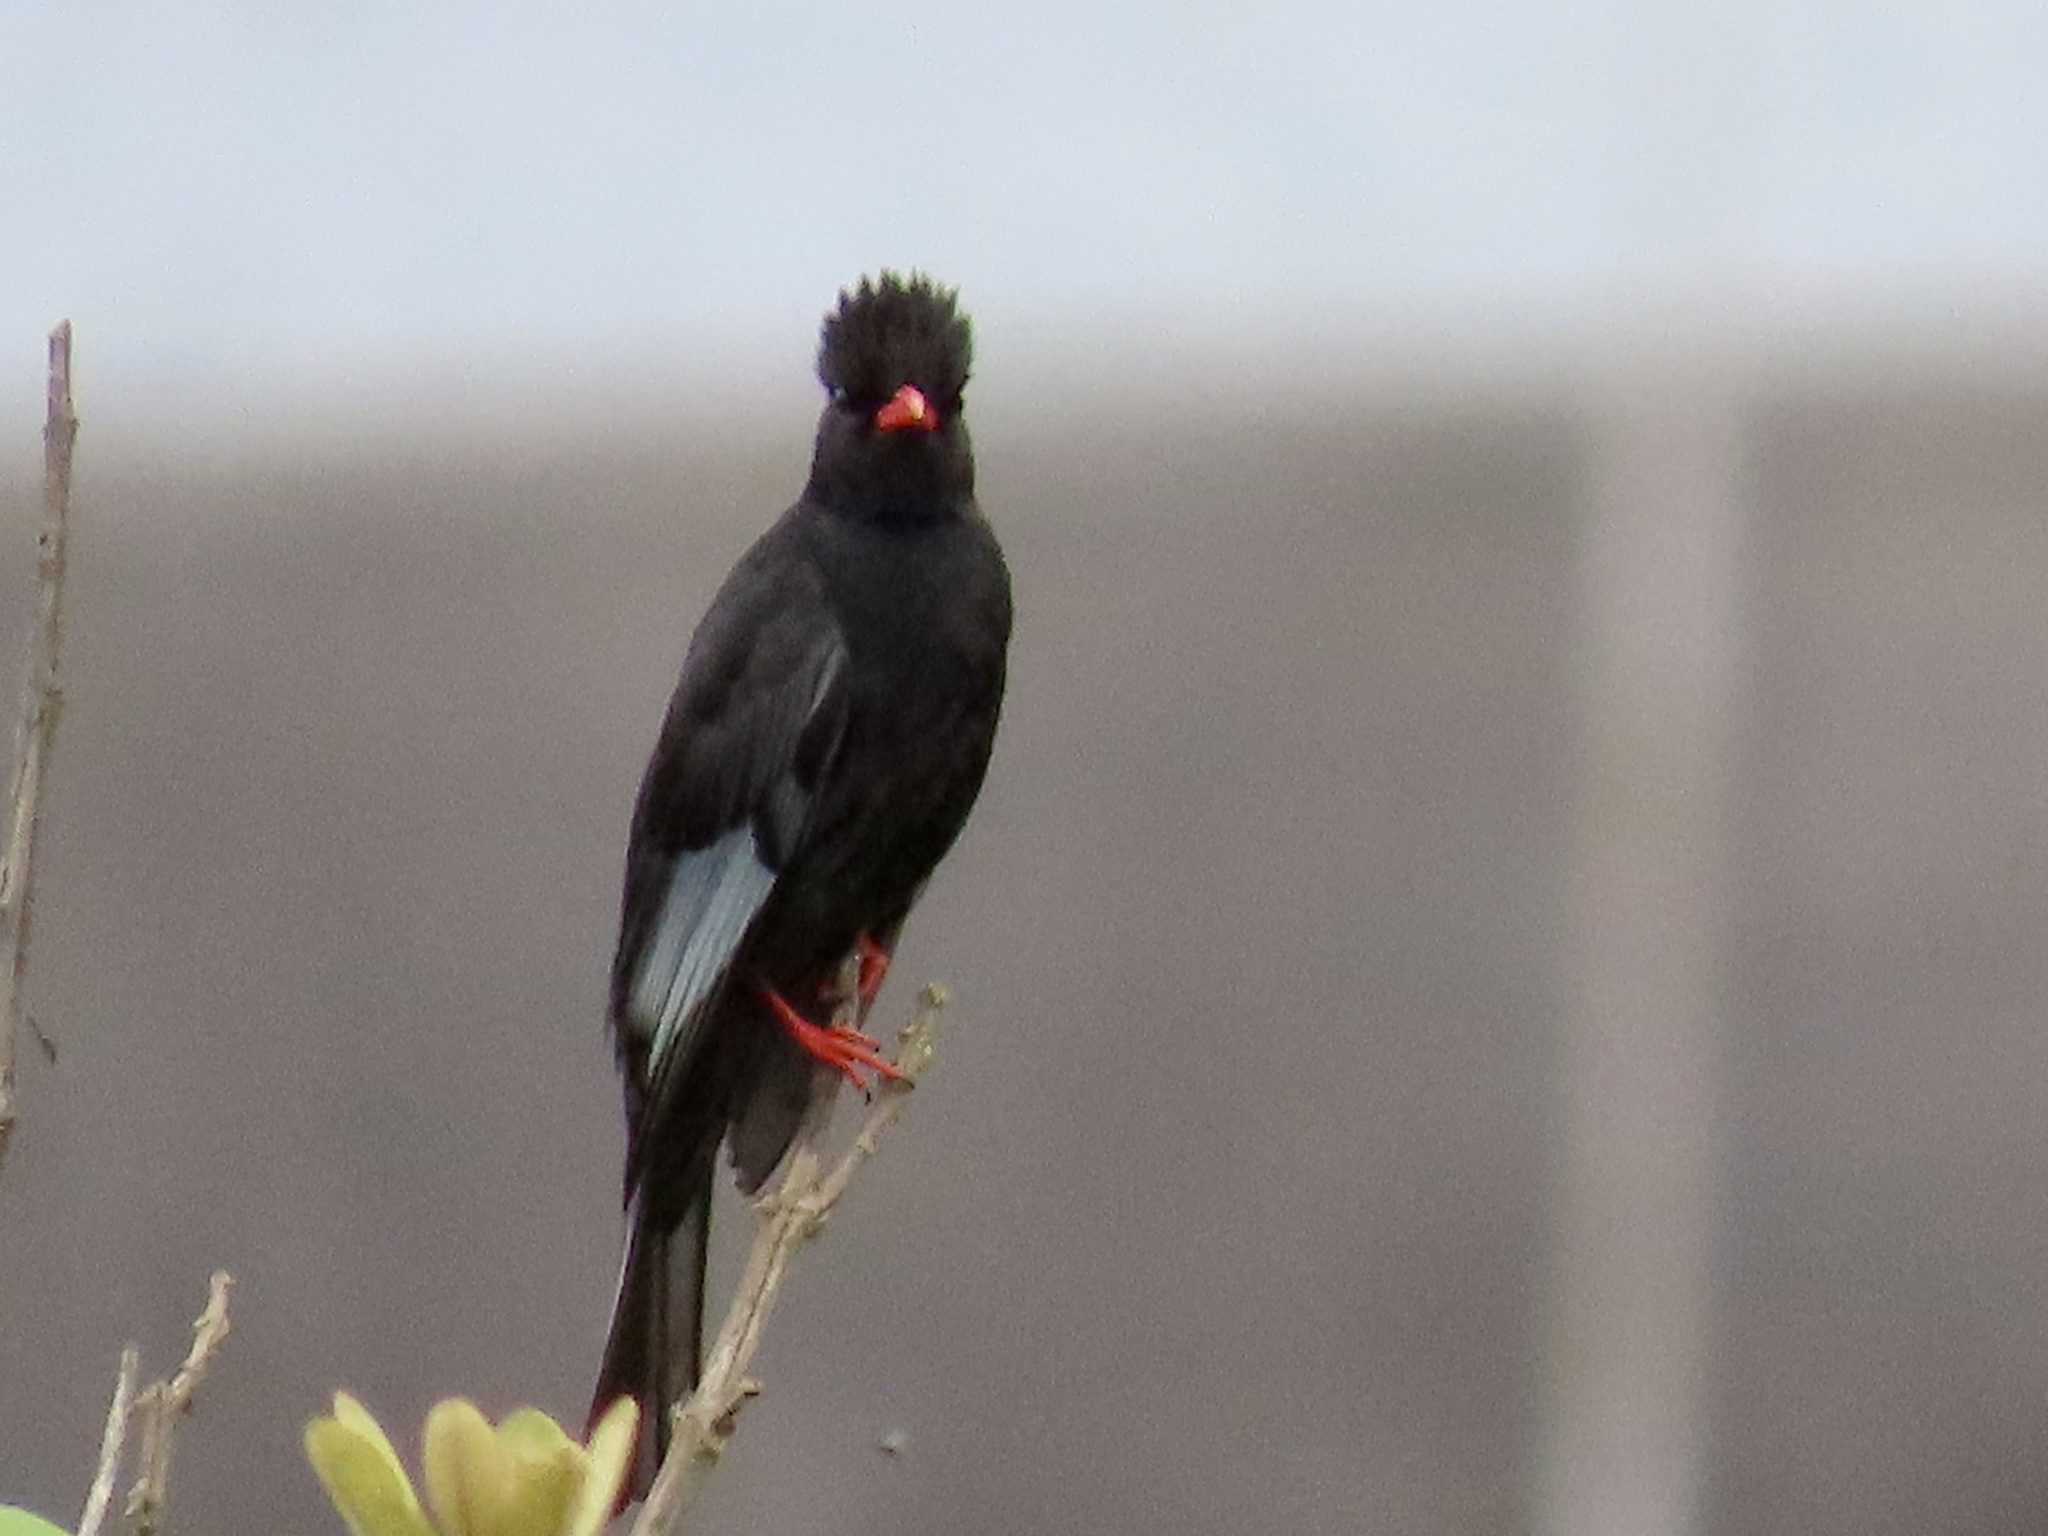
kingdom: Animalia
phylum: Chordata
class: Aves
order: Passeriformes
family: Pycnonotidae
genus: Hypsipetes
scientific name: Hypsipetes leucocephalus
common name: Black bulbul
